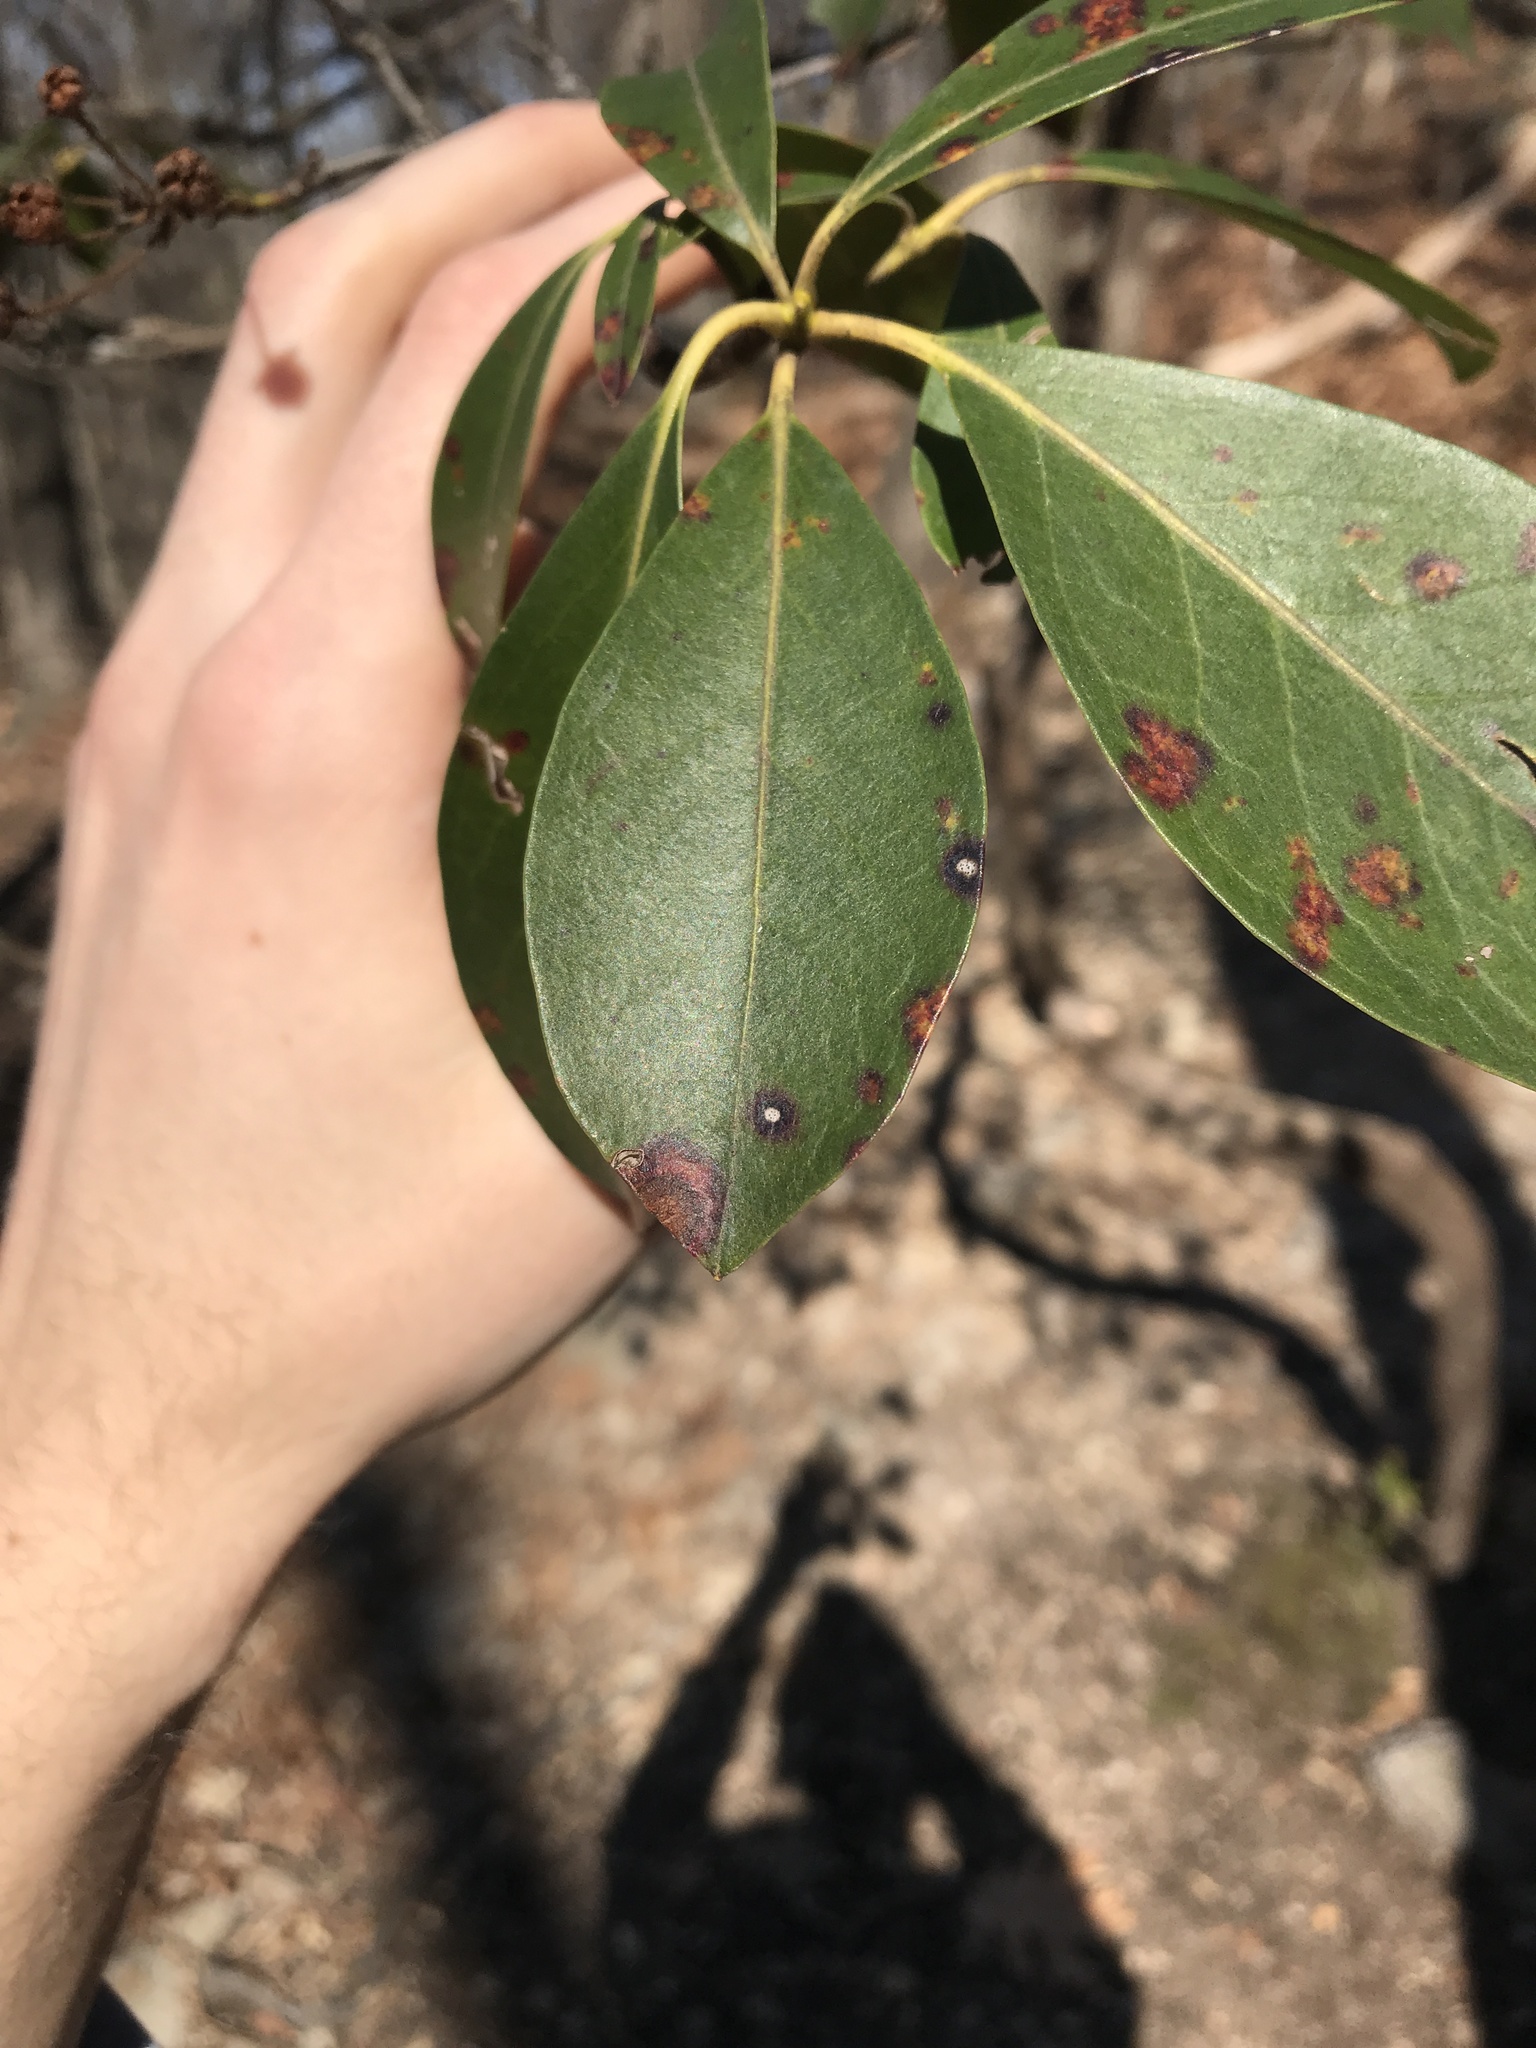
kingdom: Fungi
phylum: Ascomycota
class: Dothideomycetes
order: Mycosphaerellales
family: Mycosphaerellaceae
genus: Mycosphaerella
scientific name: Mycosphaerella colorata
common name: Mountain laurel leaf spot
